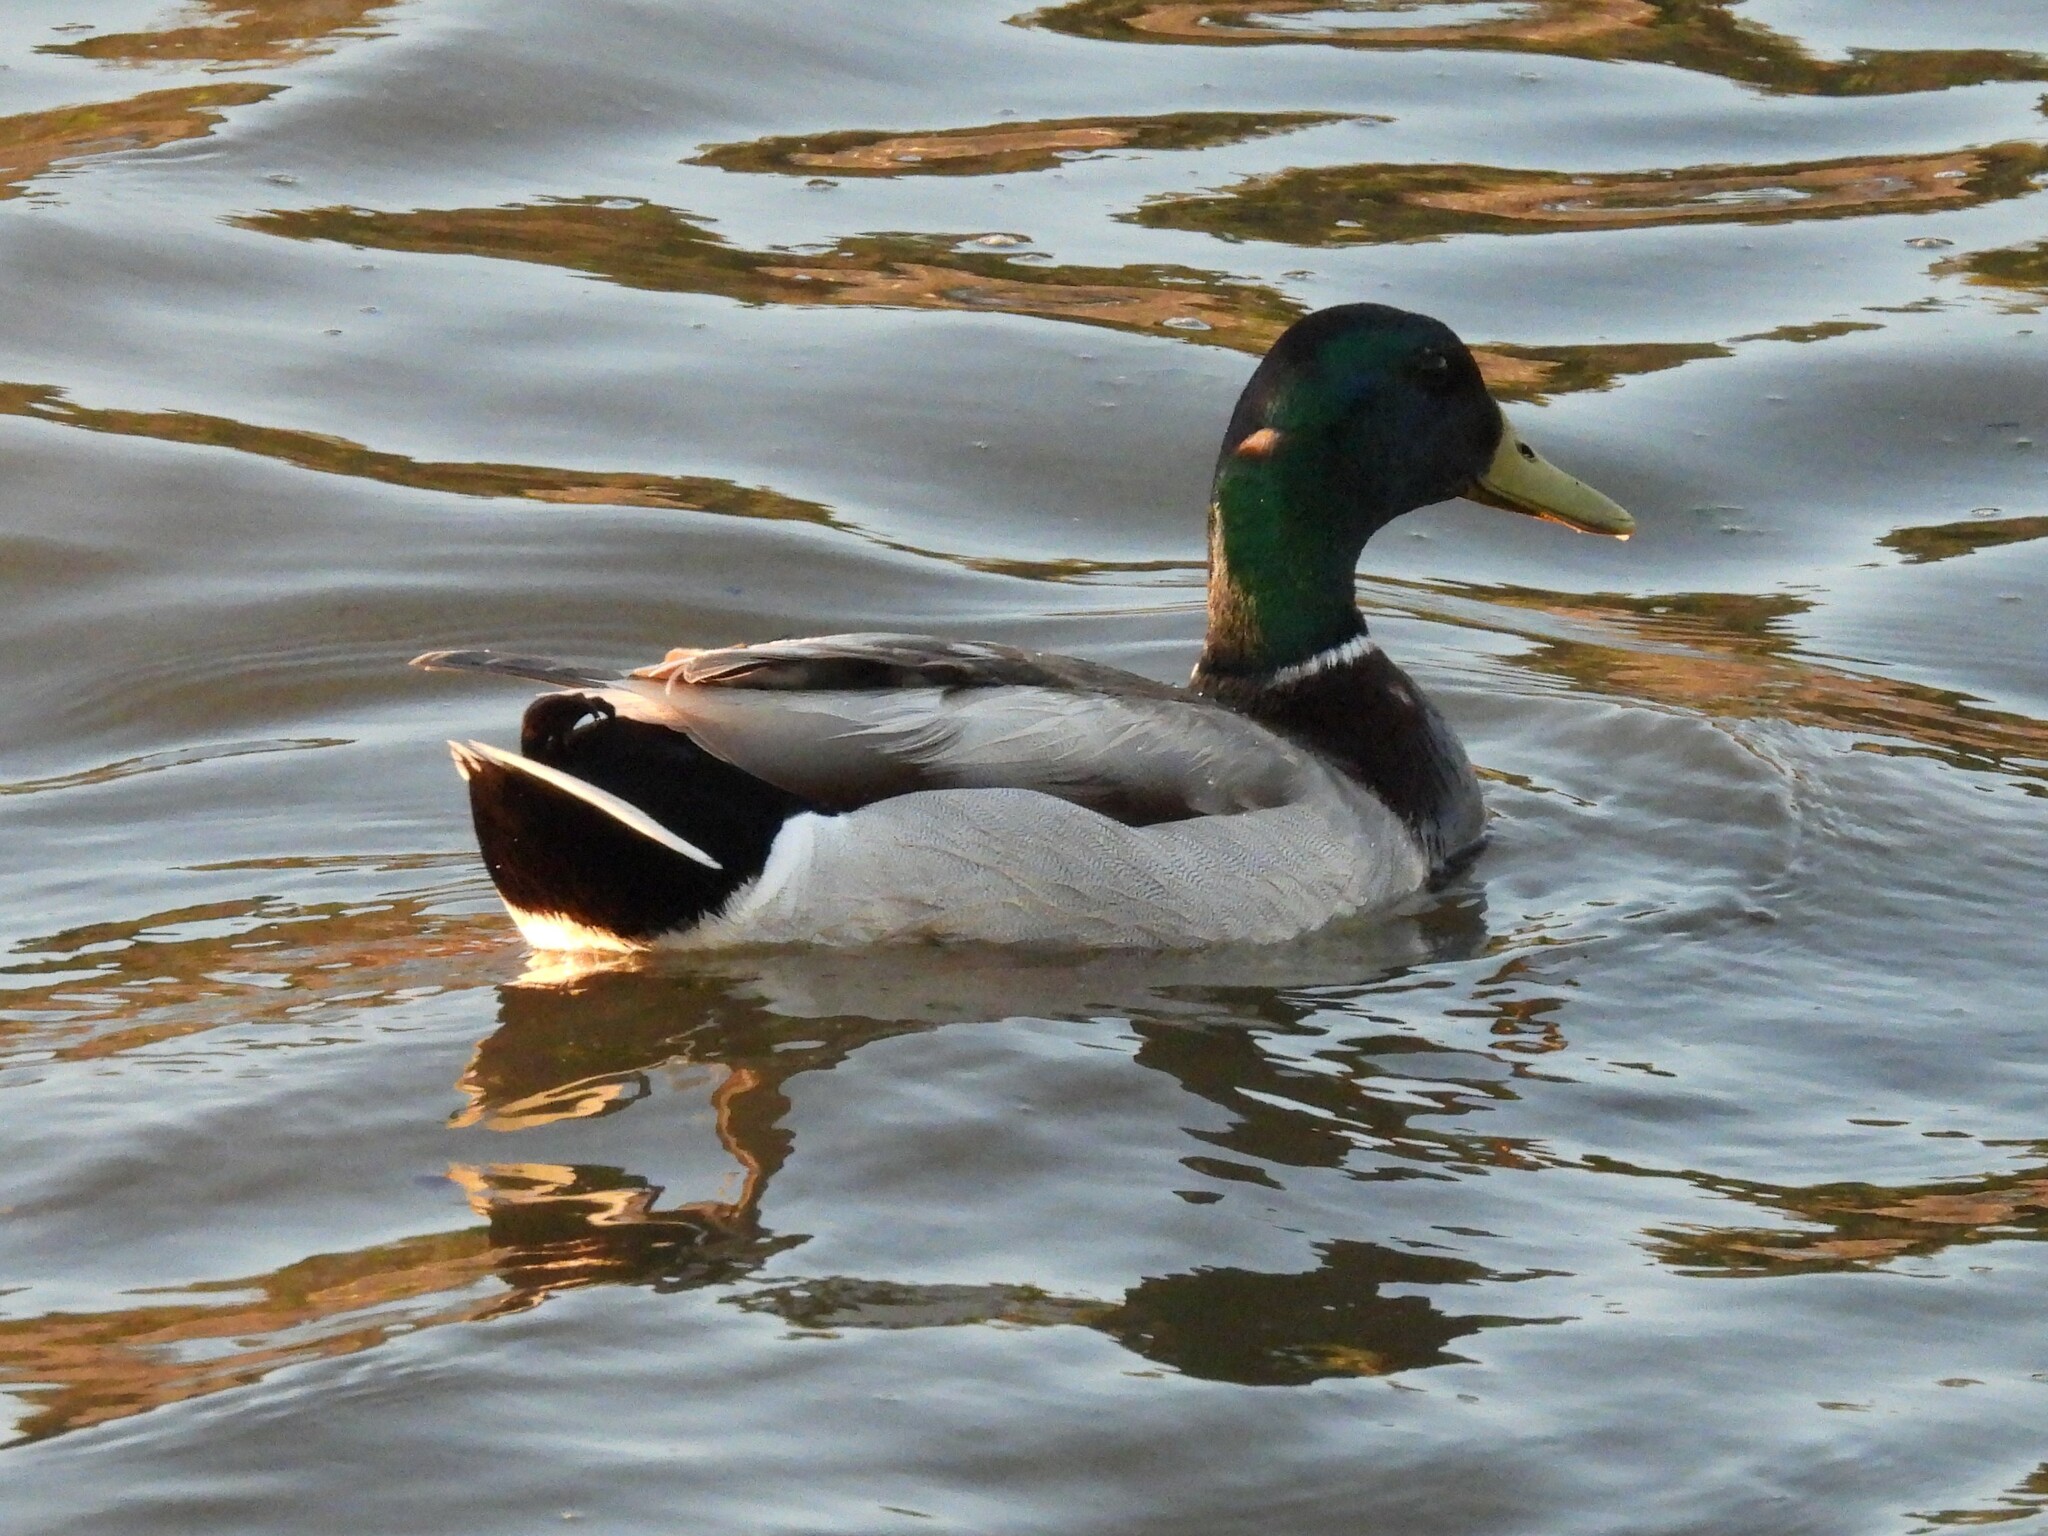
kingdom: Animalia
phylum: Chordata
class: Aves
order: Anseriformes
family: Anatidae
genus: Anas
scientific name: Anas platyrhynchos
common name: Mallard
